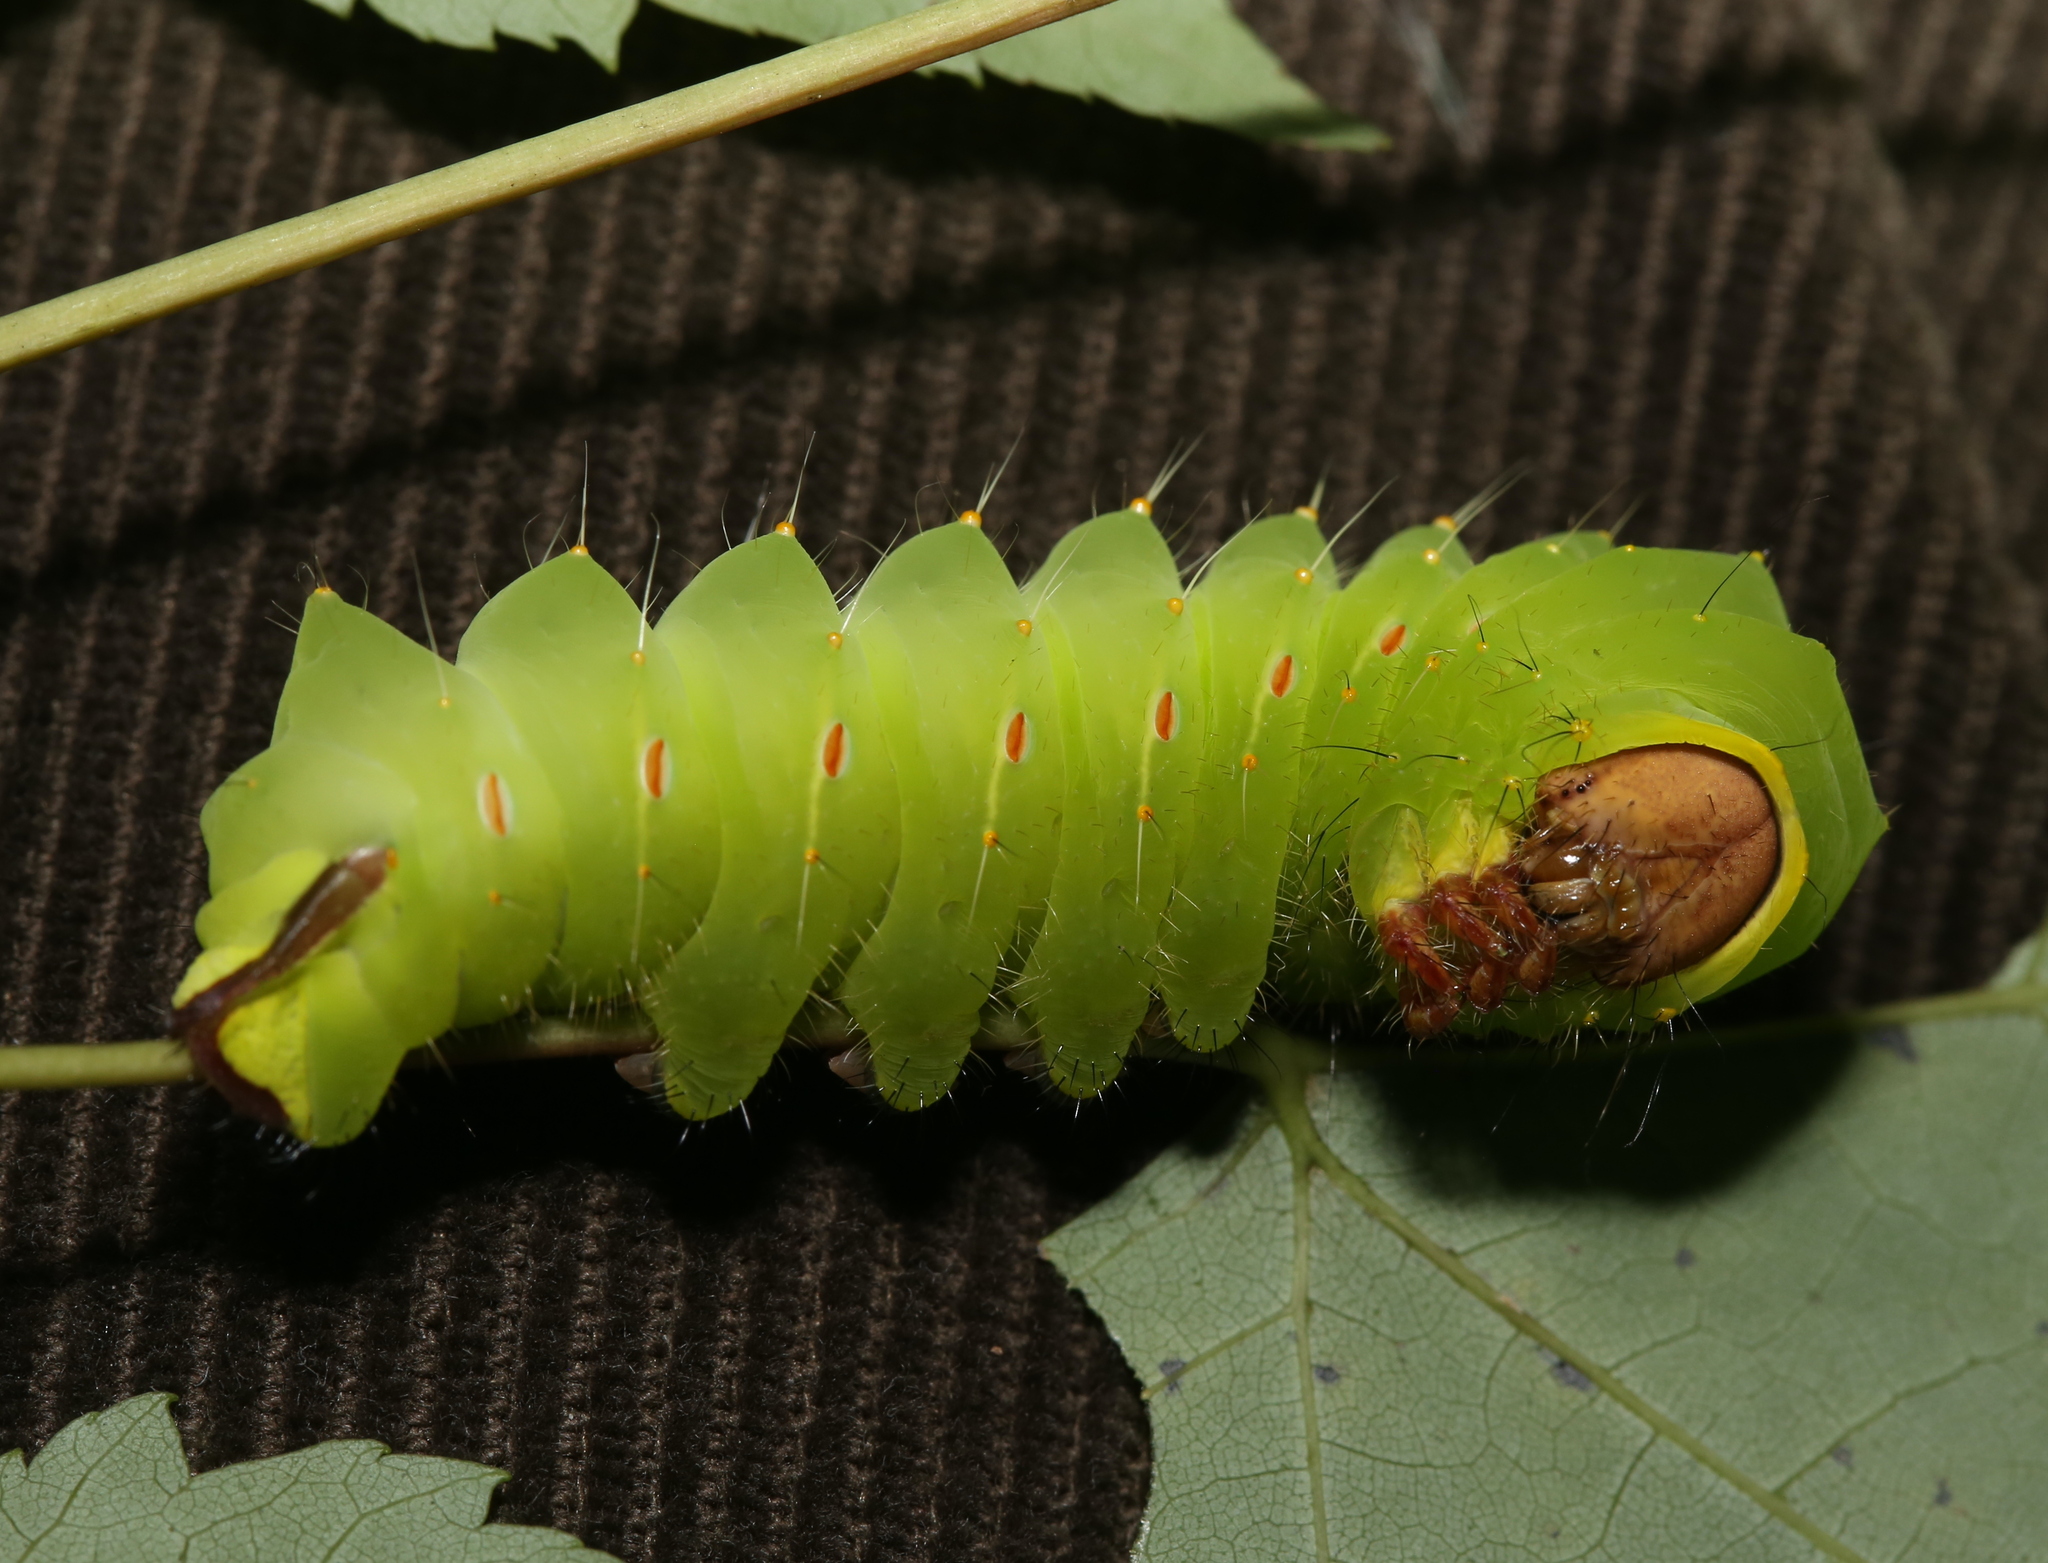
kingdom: Animalia
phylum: Arthropoda
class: Insecta
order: Lepidoptera
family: Saturniidae
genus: Antheraea
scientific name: Antheraea polyphemus
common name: Polyphemus moth
